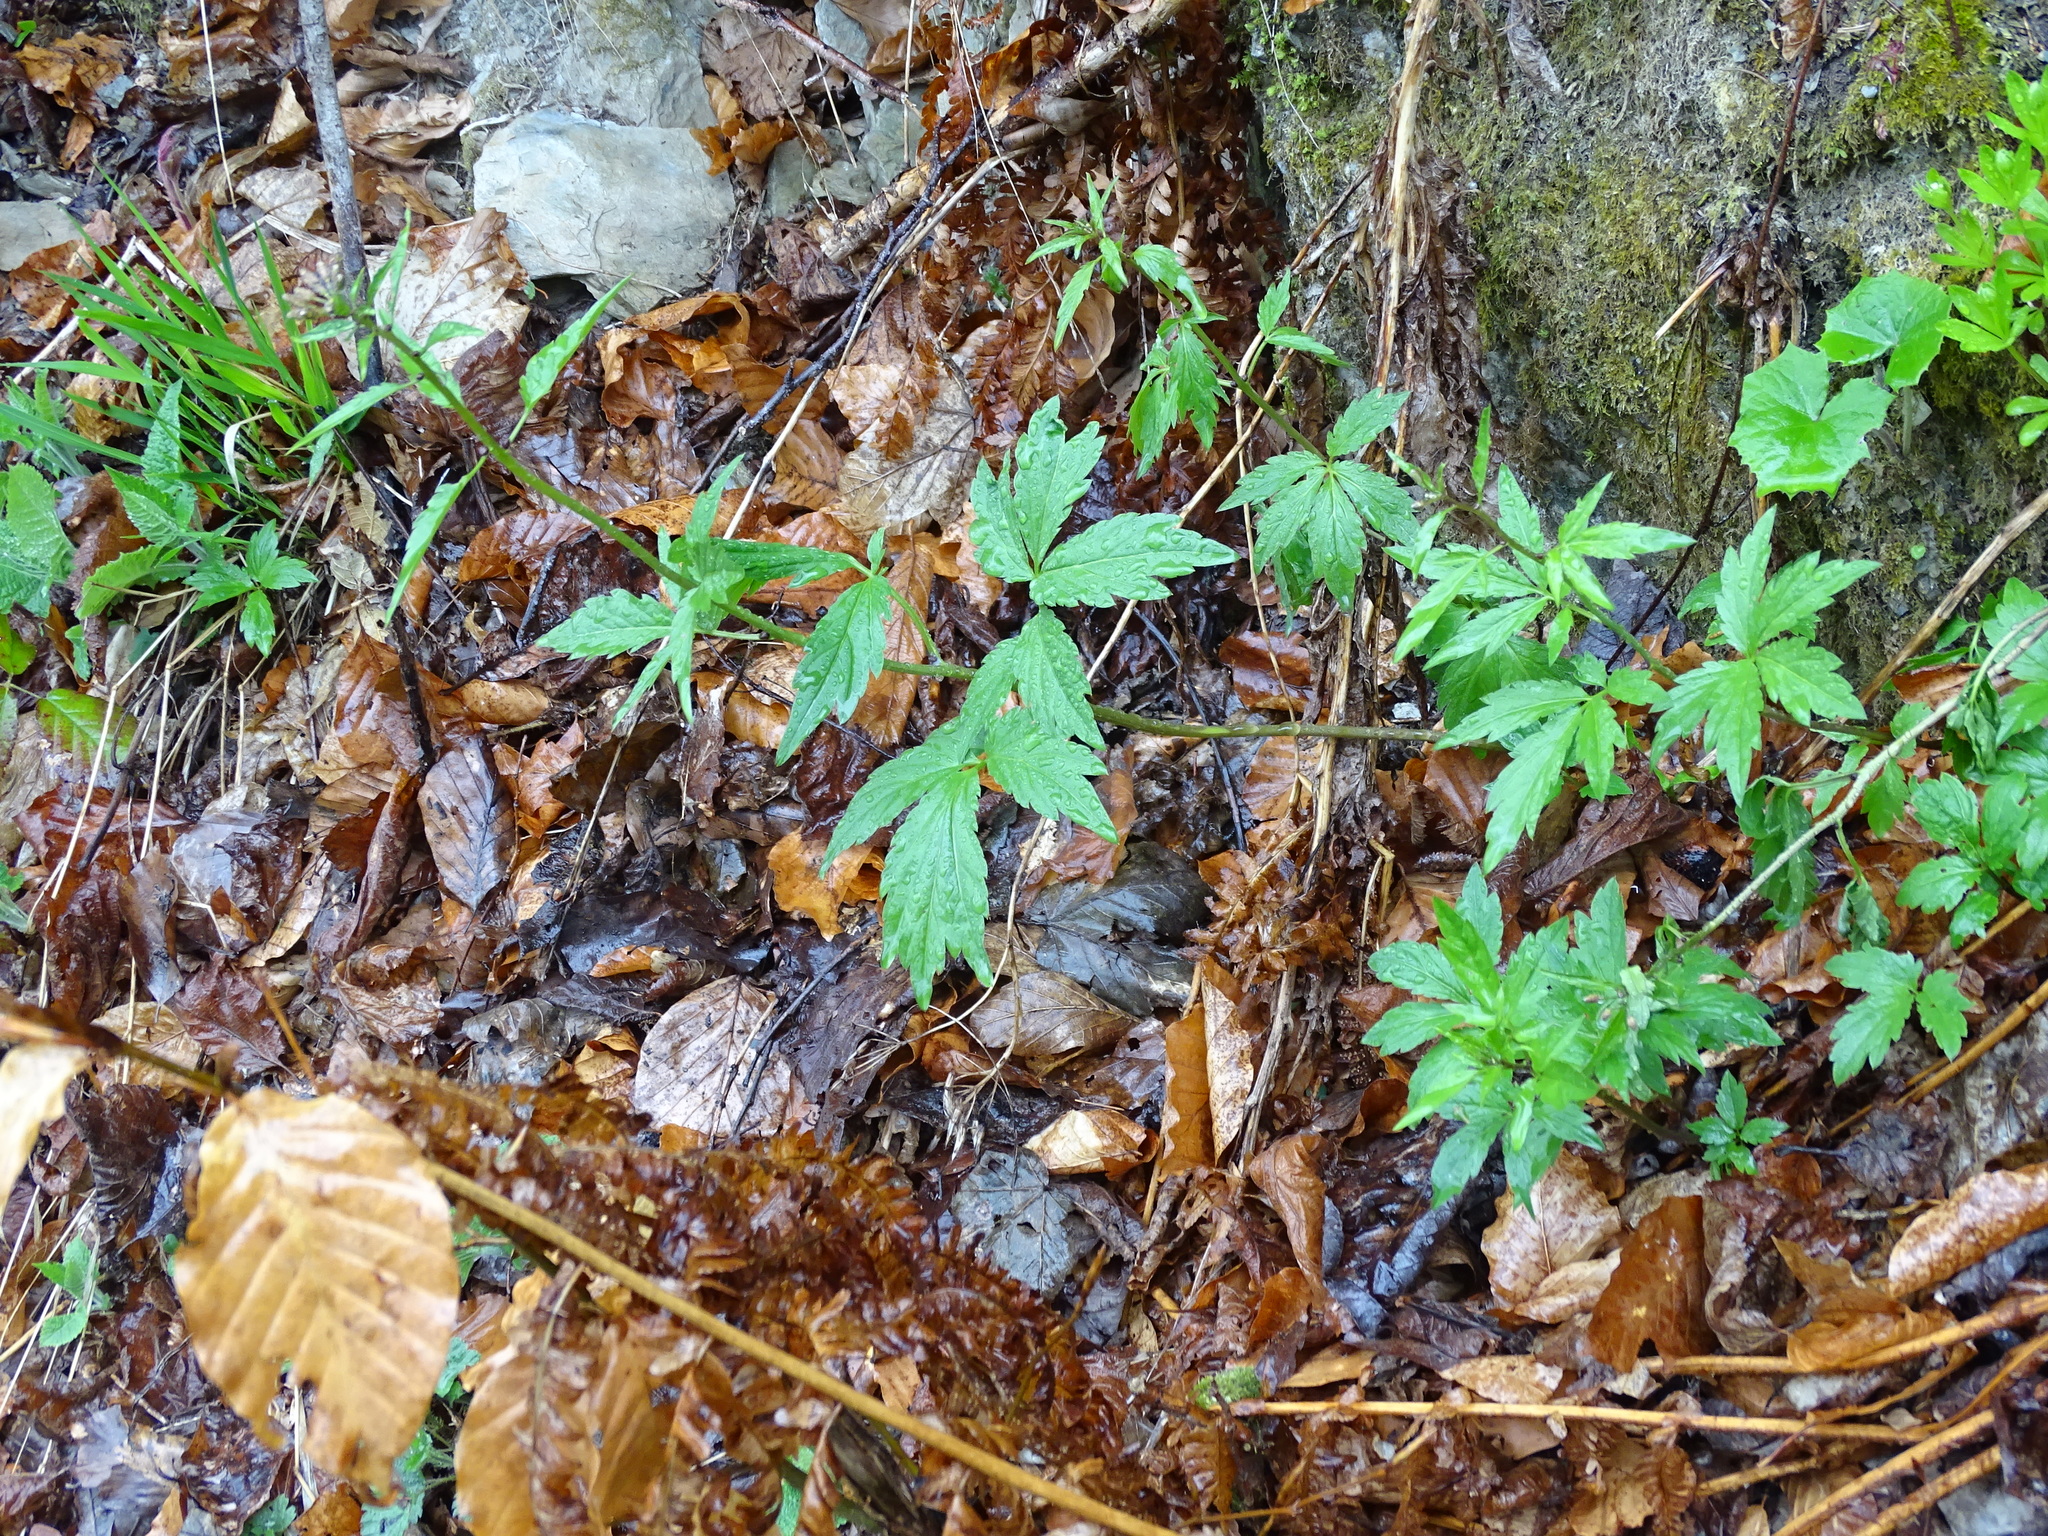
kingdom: Plantae
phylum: Tracheophyta
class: Magnoliopsida
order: Brassicales
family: Brassicaceae
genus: Cardamine
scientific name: Cardamine bulbifera
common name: Coralroot bittercress
